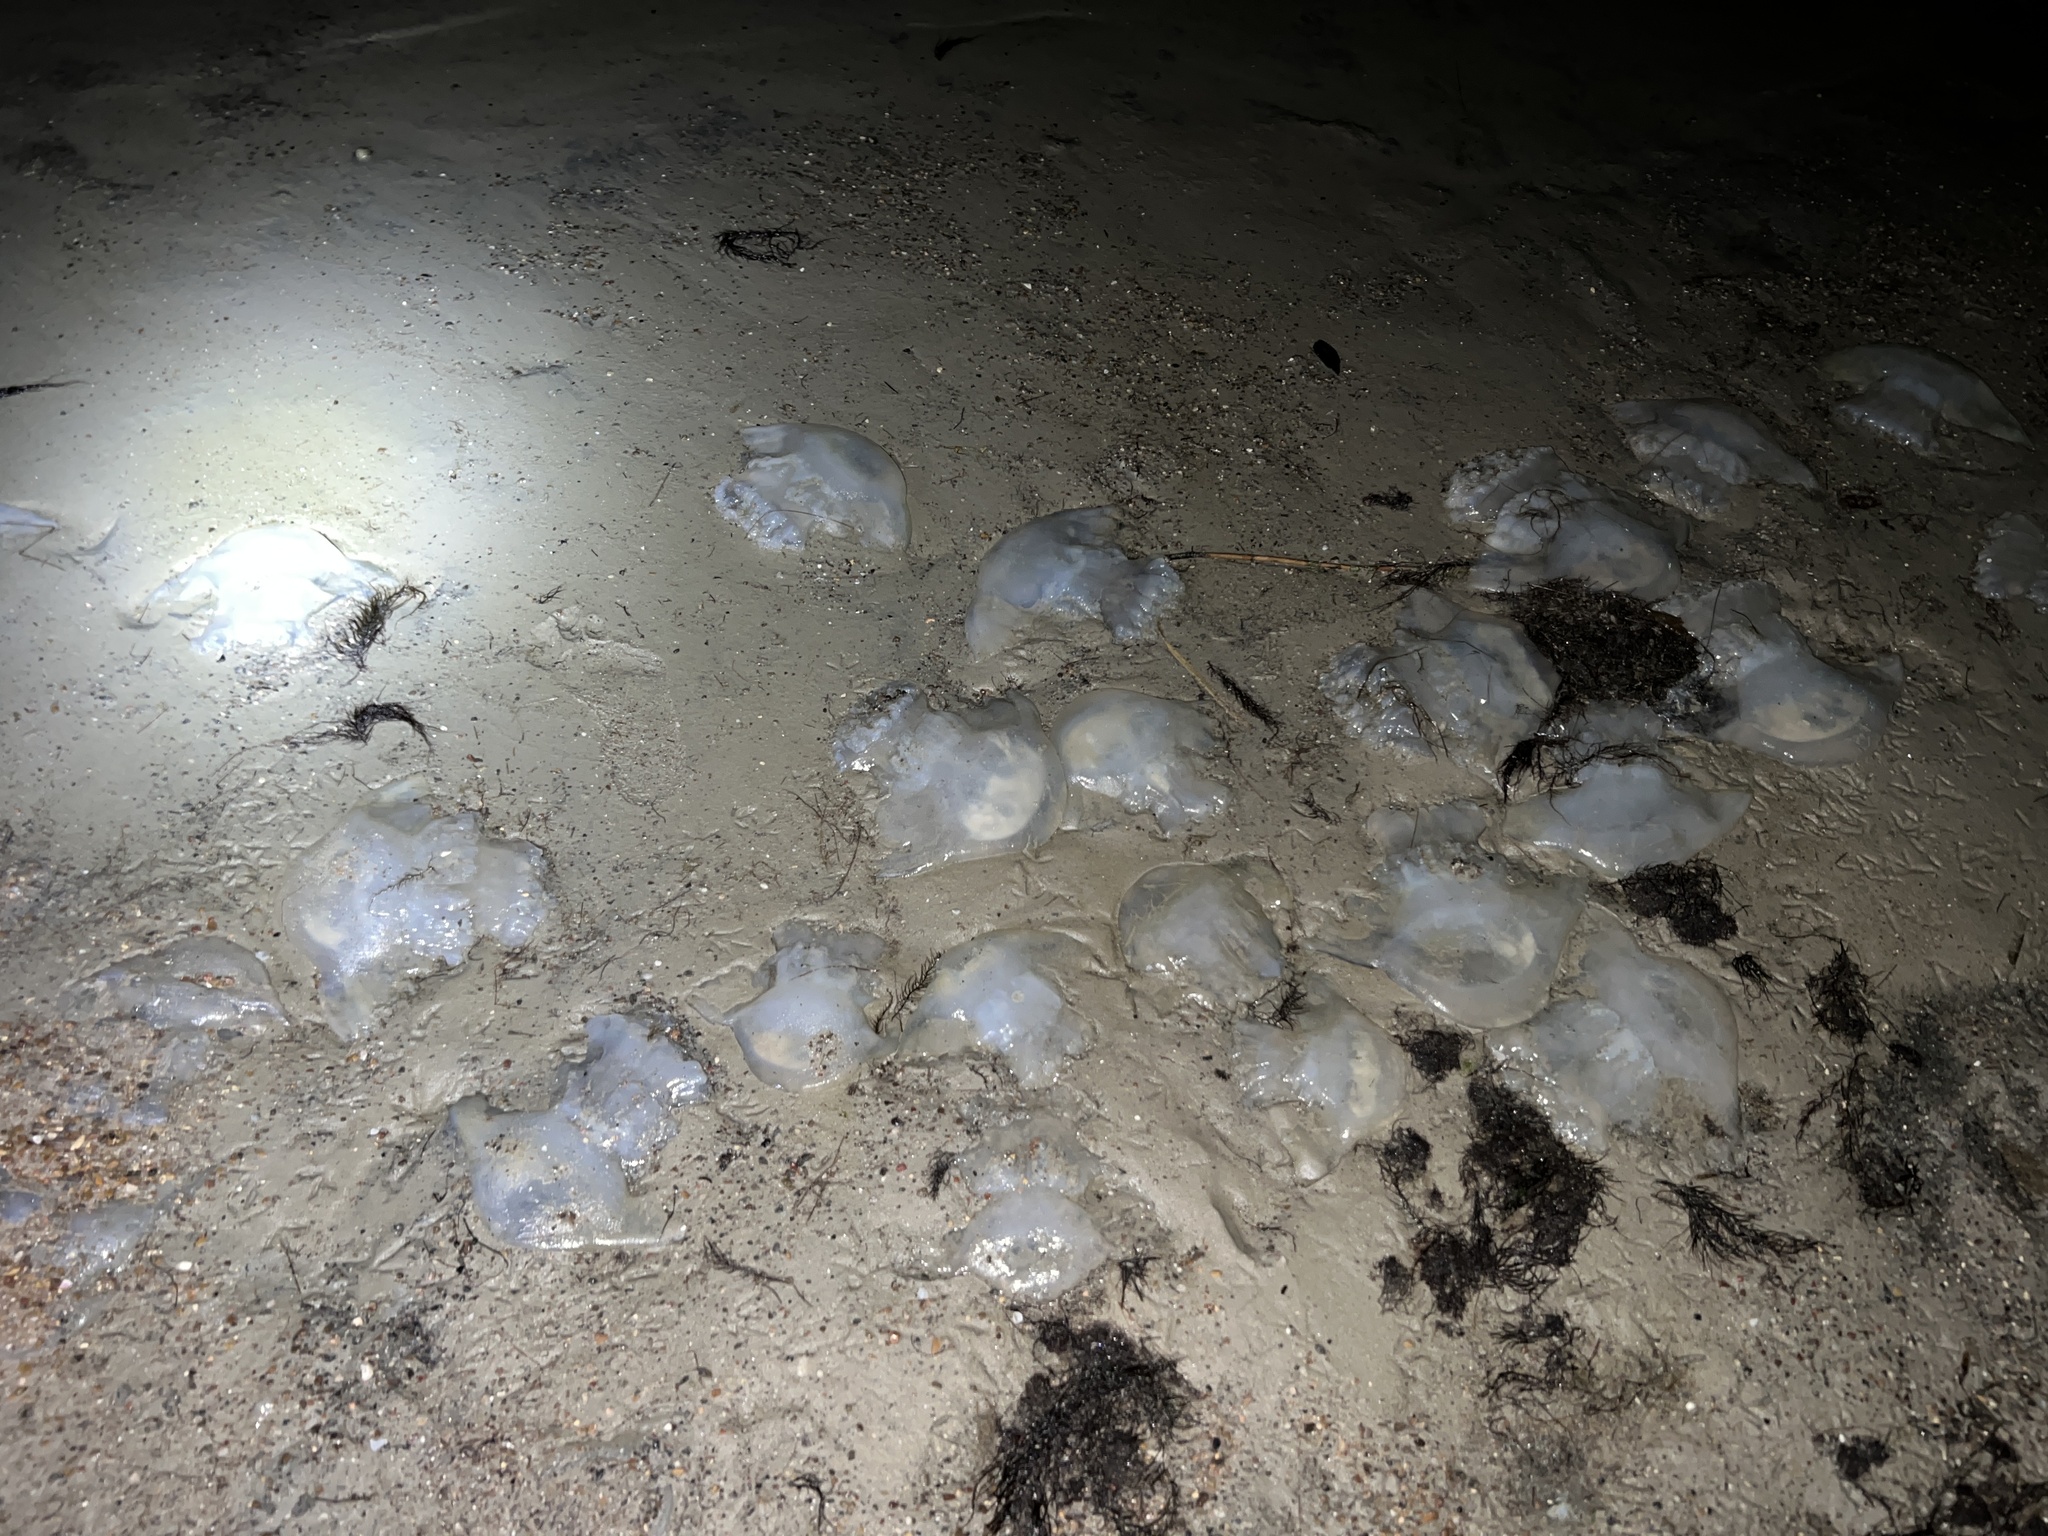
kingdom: Animalia
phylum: Cnidaria
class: Scyphozoa
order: Rhizostomeae
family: Stomolophidae
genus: Stomolophus
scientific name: Stomolophus meleagris
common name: Cabbagehead
